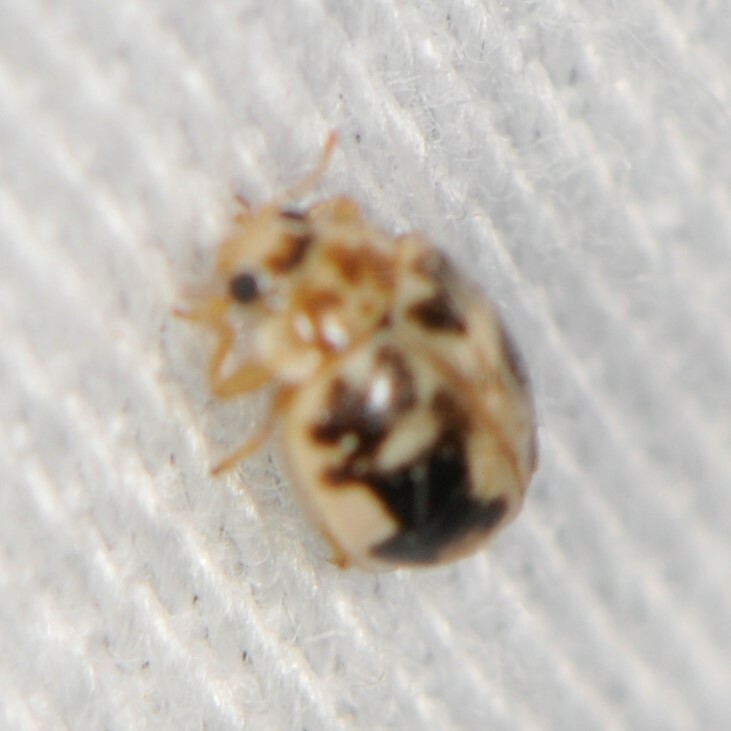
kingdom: Animalia
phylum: Arthropoda
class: Insecta
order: Coleoptera
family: Coccinellidae
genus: Psyllobora
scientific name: Psyllobora renifer
